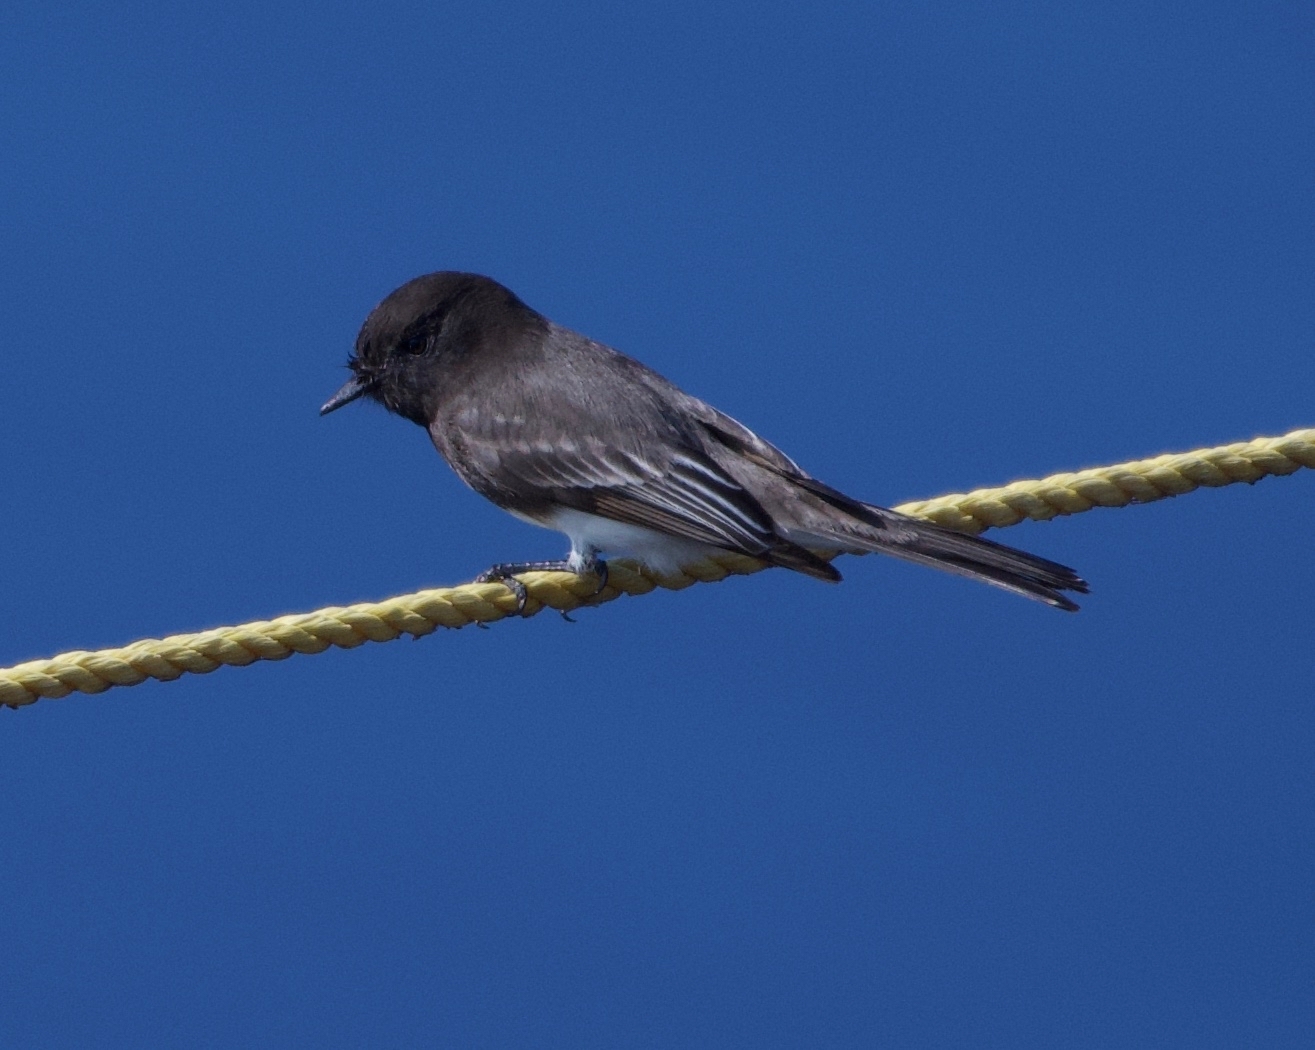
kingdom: Animalia
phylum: Chordata
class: Aves
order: Passeriformes
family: Tyrannidae
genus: Sayornis
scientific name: Sayornis nigricans
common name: Black phoebe
